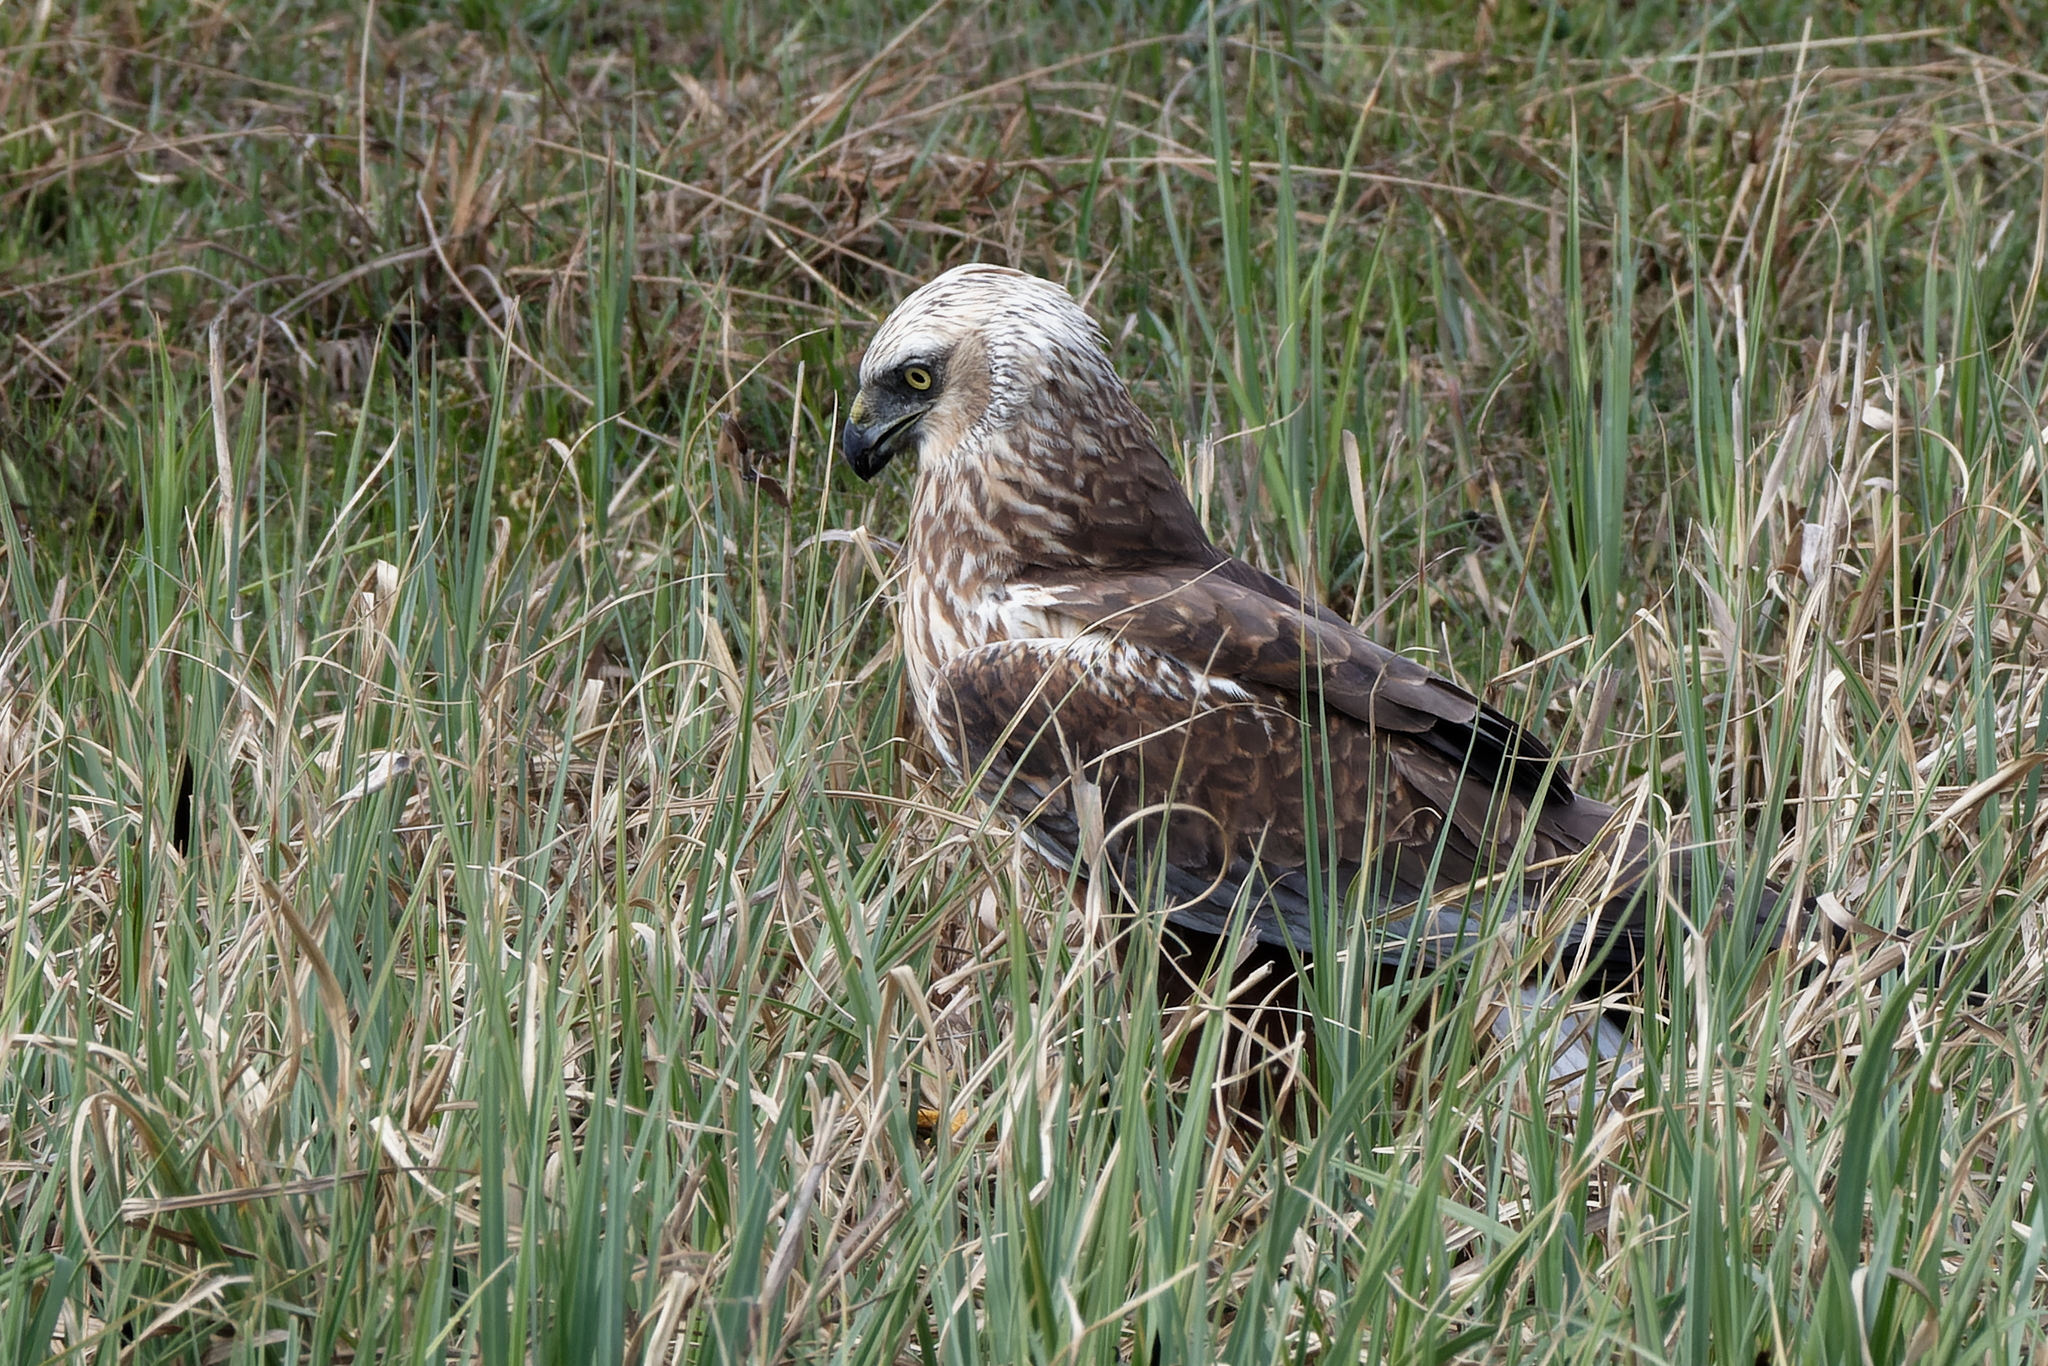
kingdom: Animalia
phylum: Chordata
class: Aves
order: Accipitriformes
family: Accipitridae
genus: Circus
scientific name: Circus aeruginosus
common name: Western marsh harrier
